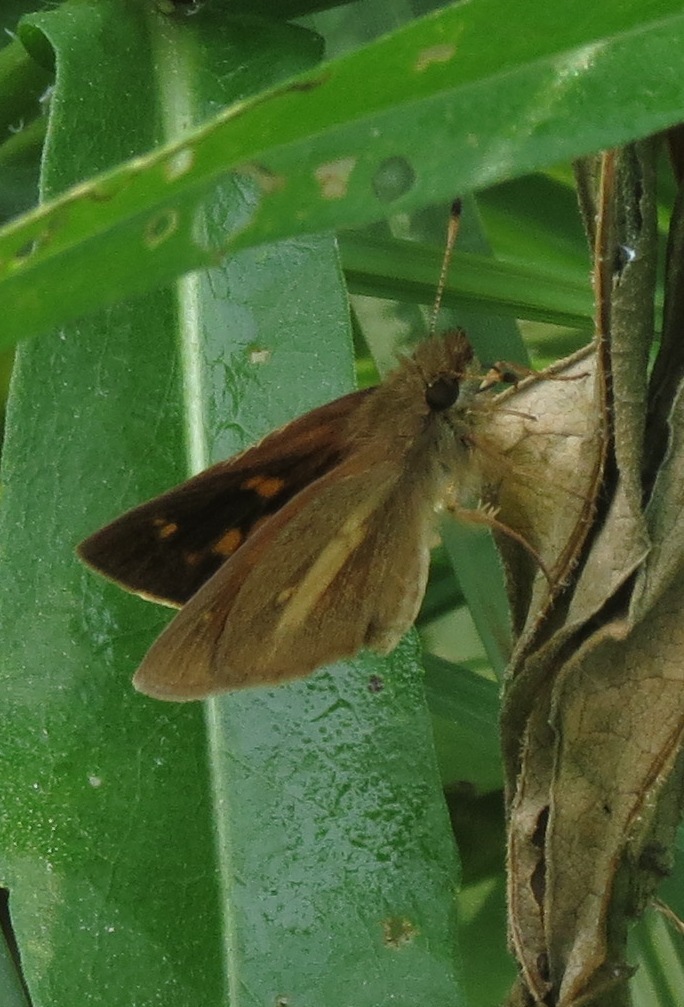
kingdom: Animalia
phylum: Arthropoda
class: Insecta
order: Lepidoptera
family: Hesperiidae
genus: Poanes
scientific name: Poanes viator
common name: Broad-winged skipper
